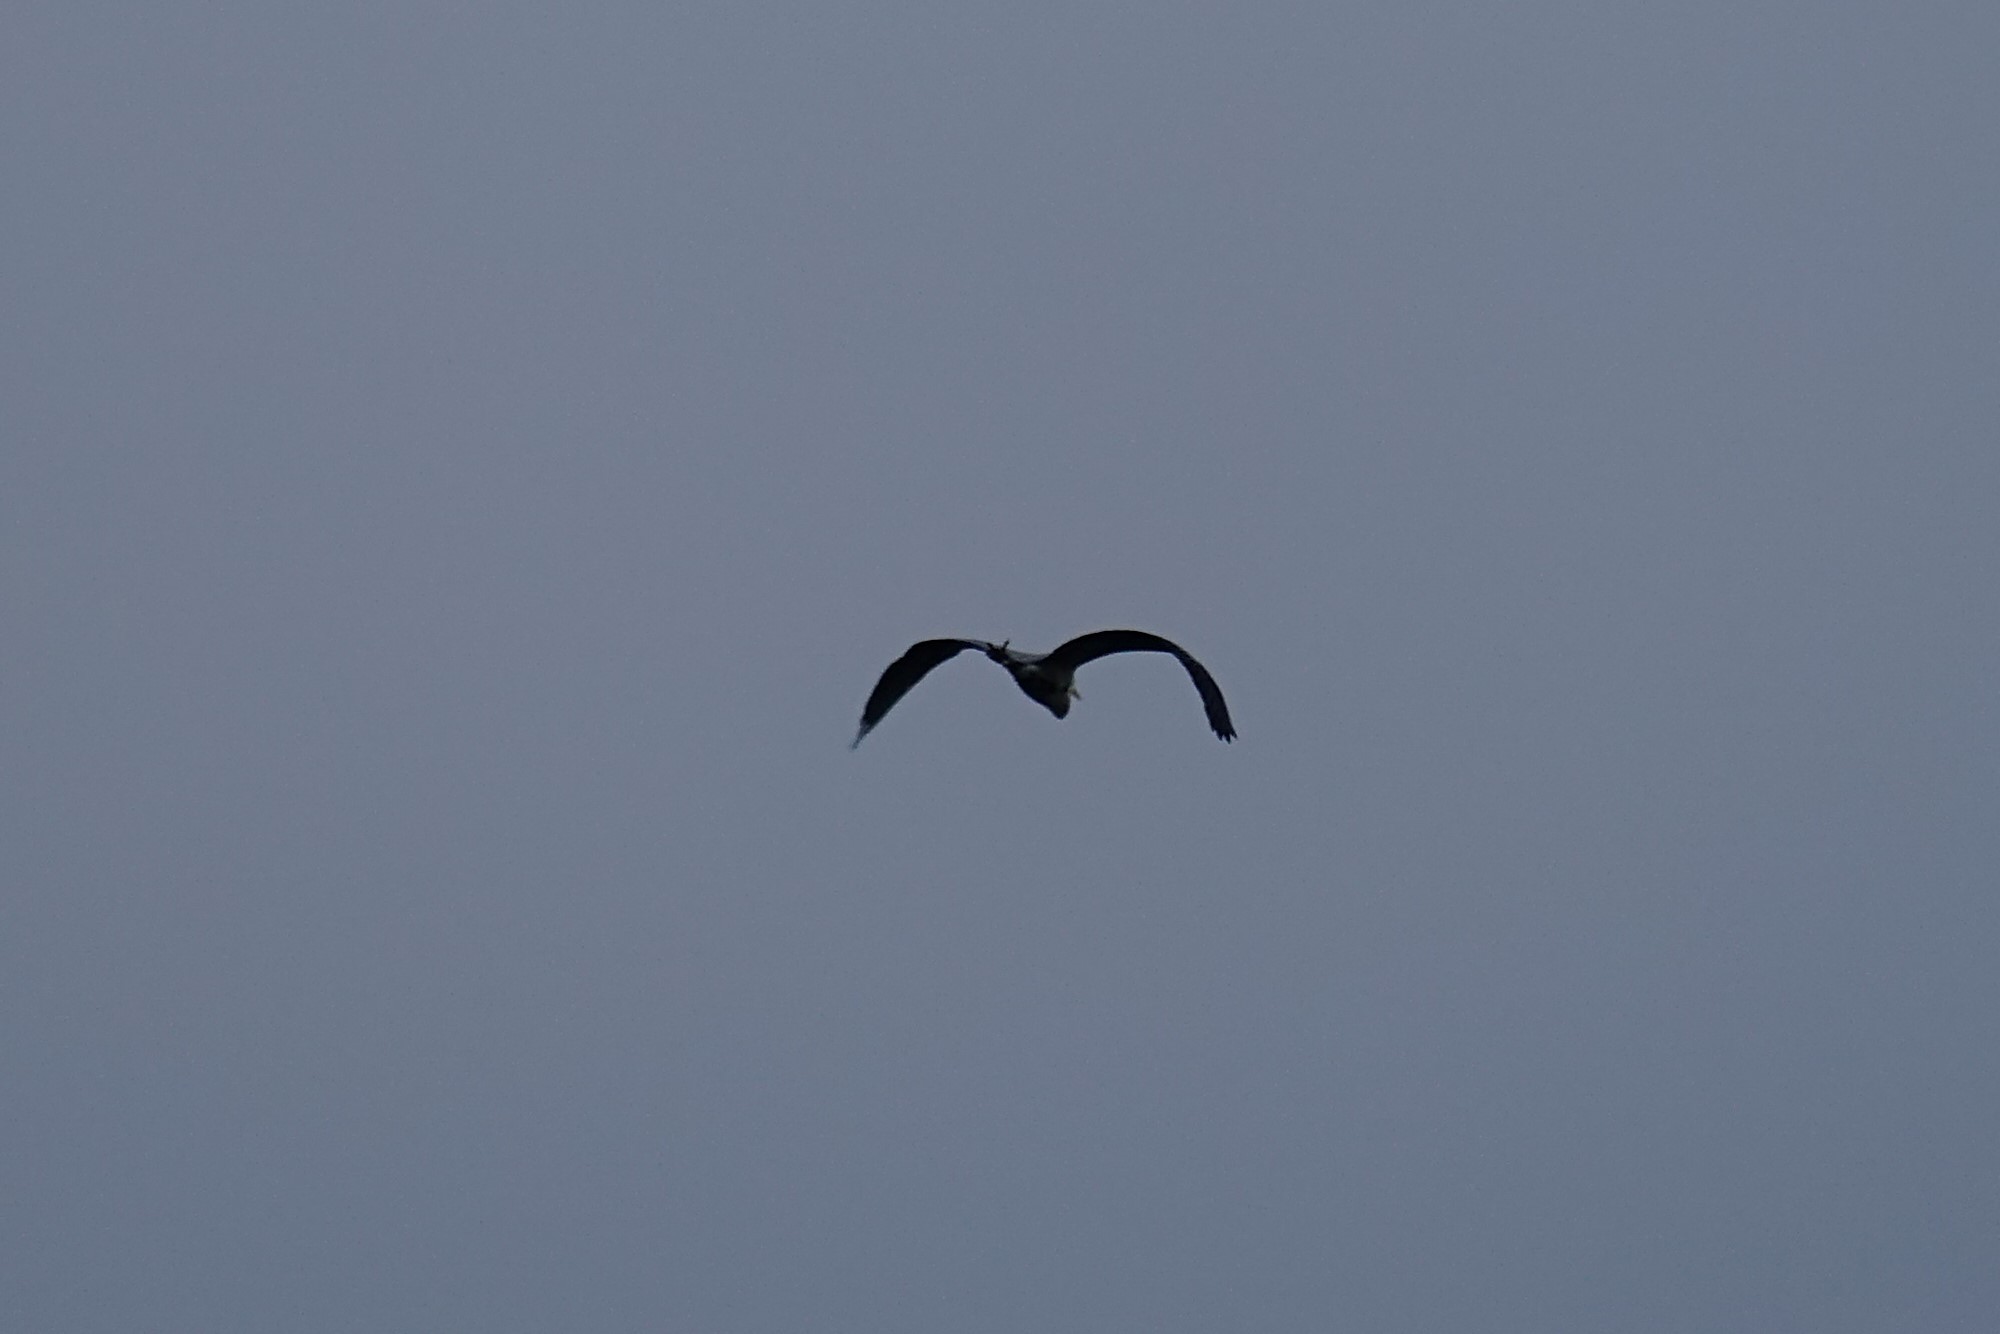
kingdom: Animalia
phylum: Chordata
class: Aves
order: Pelecaniformes
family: Ardeidae
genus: Ardea
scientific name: Ardea herodias
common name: Great blue heron
